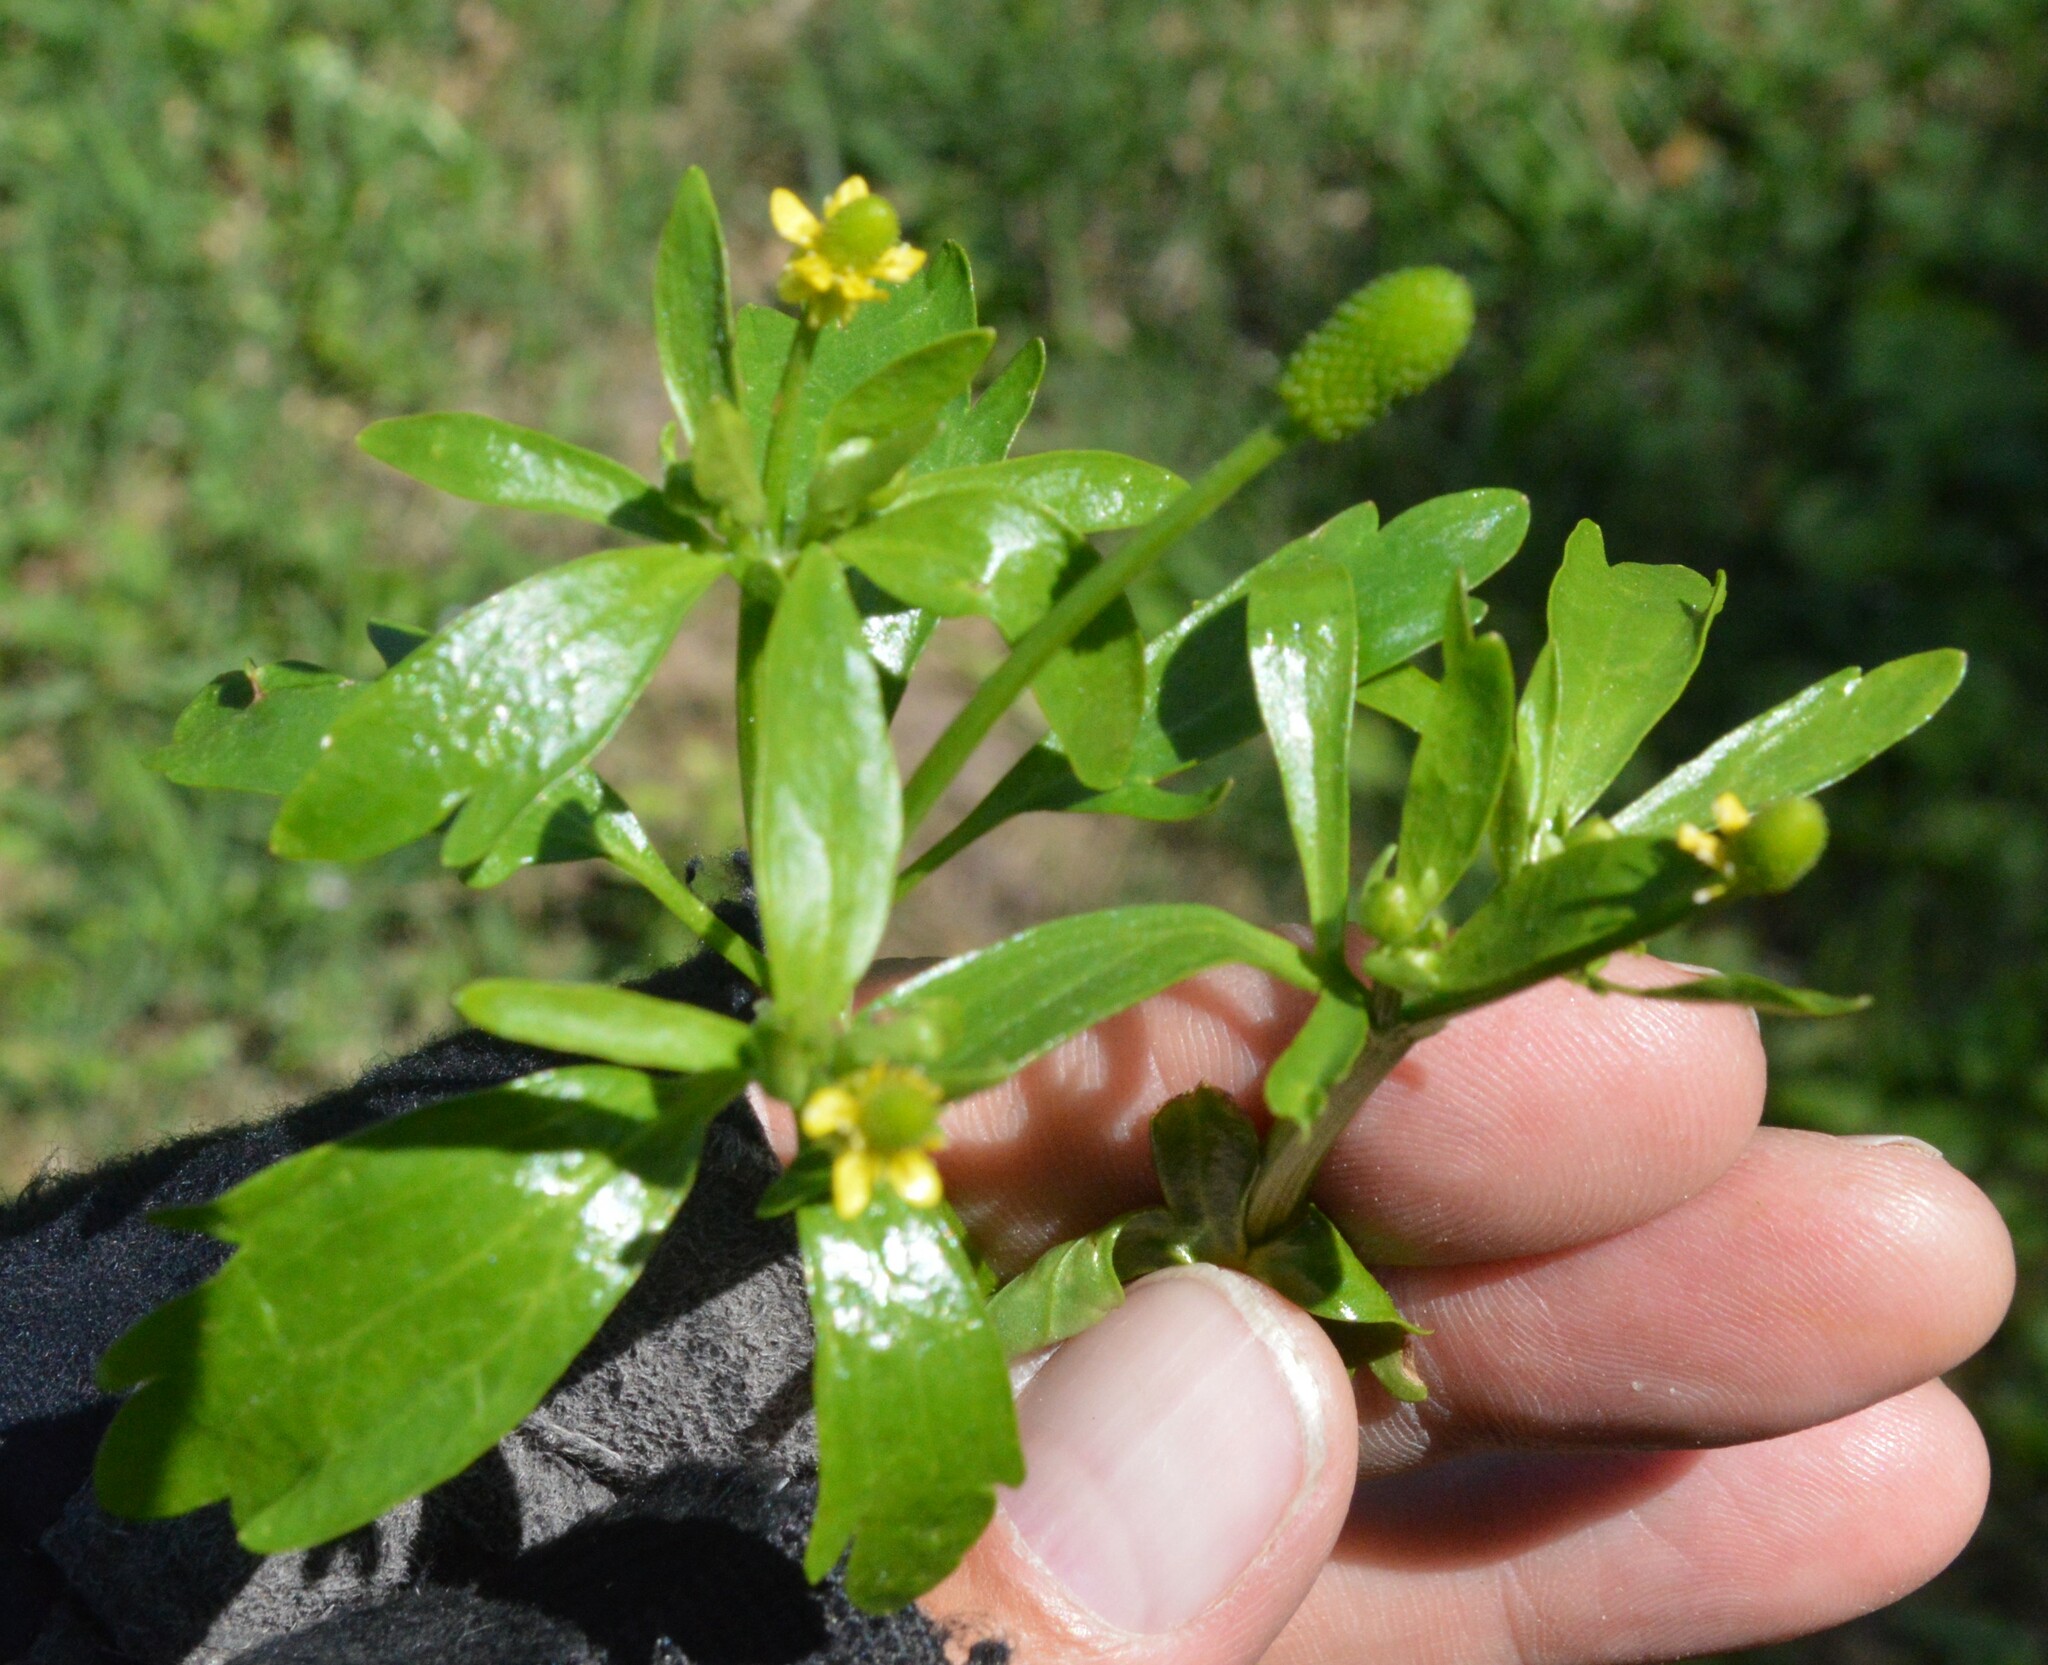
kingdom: Plantae
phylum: Tracheophyta
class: Magnoliopsida
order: Ranunculales
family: Ranunculaceae
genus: Ranunculus
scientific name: Ranunculus sceleratus
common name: Celery-leaved buttercup
